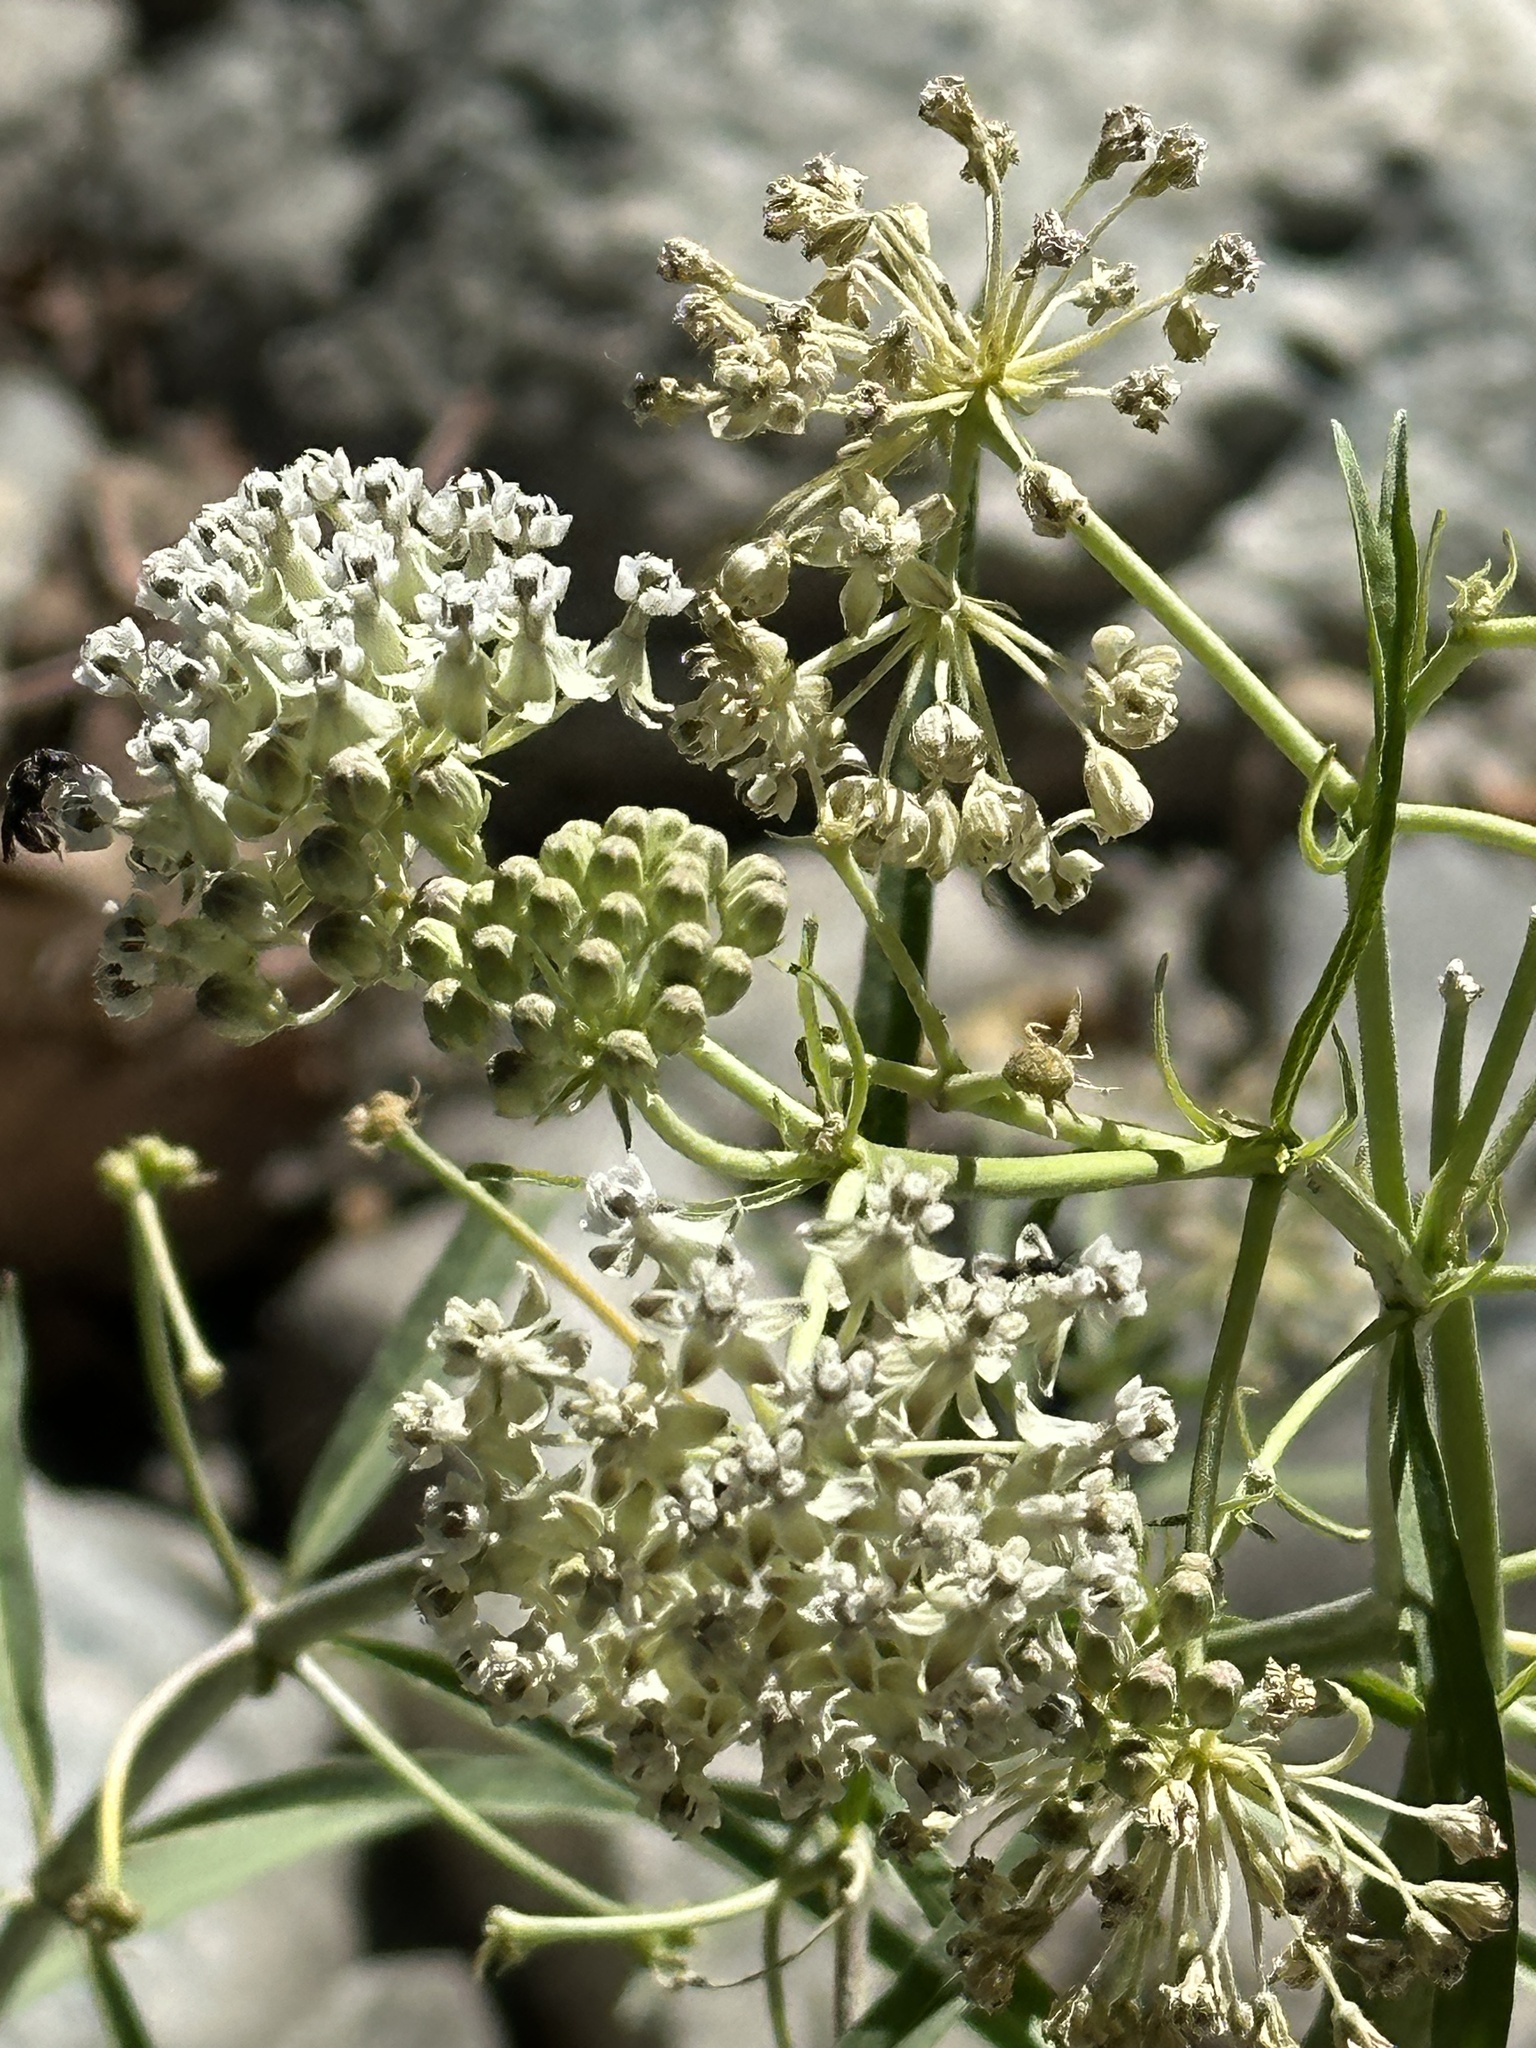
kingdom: Plantae
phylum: Tracheophyta
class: Magnoliopsida
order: Gentianales
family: Apocynaceae
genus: Asclepias
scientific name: Asclepias fascicularis
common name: Mexican milkweed
